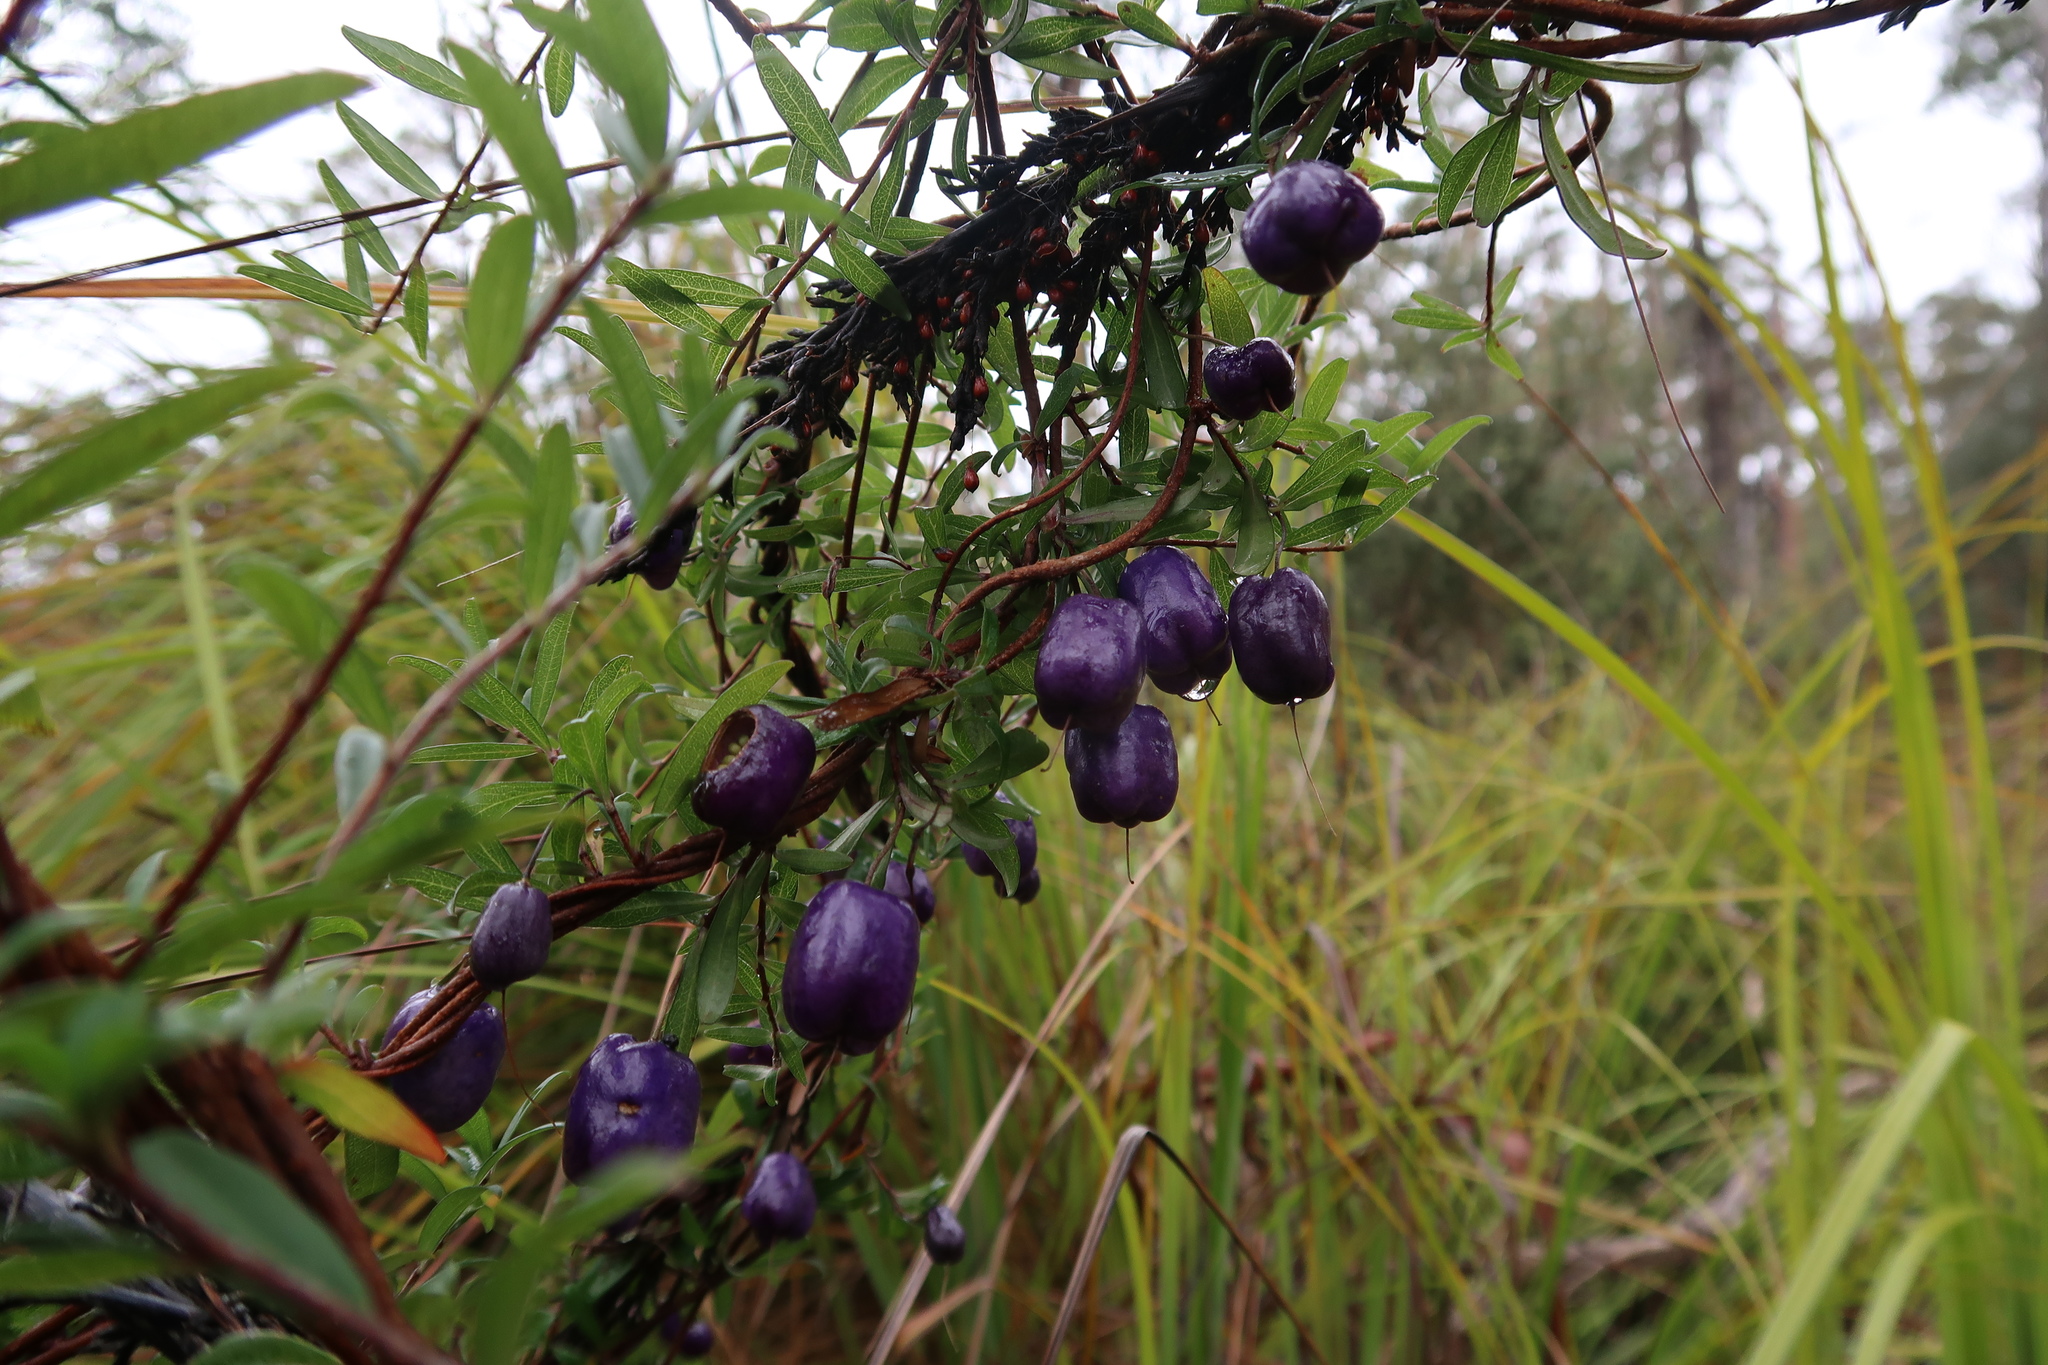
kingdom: Plantae
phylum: Tracheophyta
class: Magnoliopsida
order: Apiales
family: Pittosporaceae
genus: Billardiera
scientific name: Billardiera macrantha
